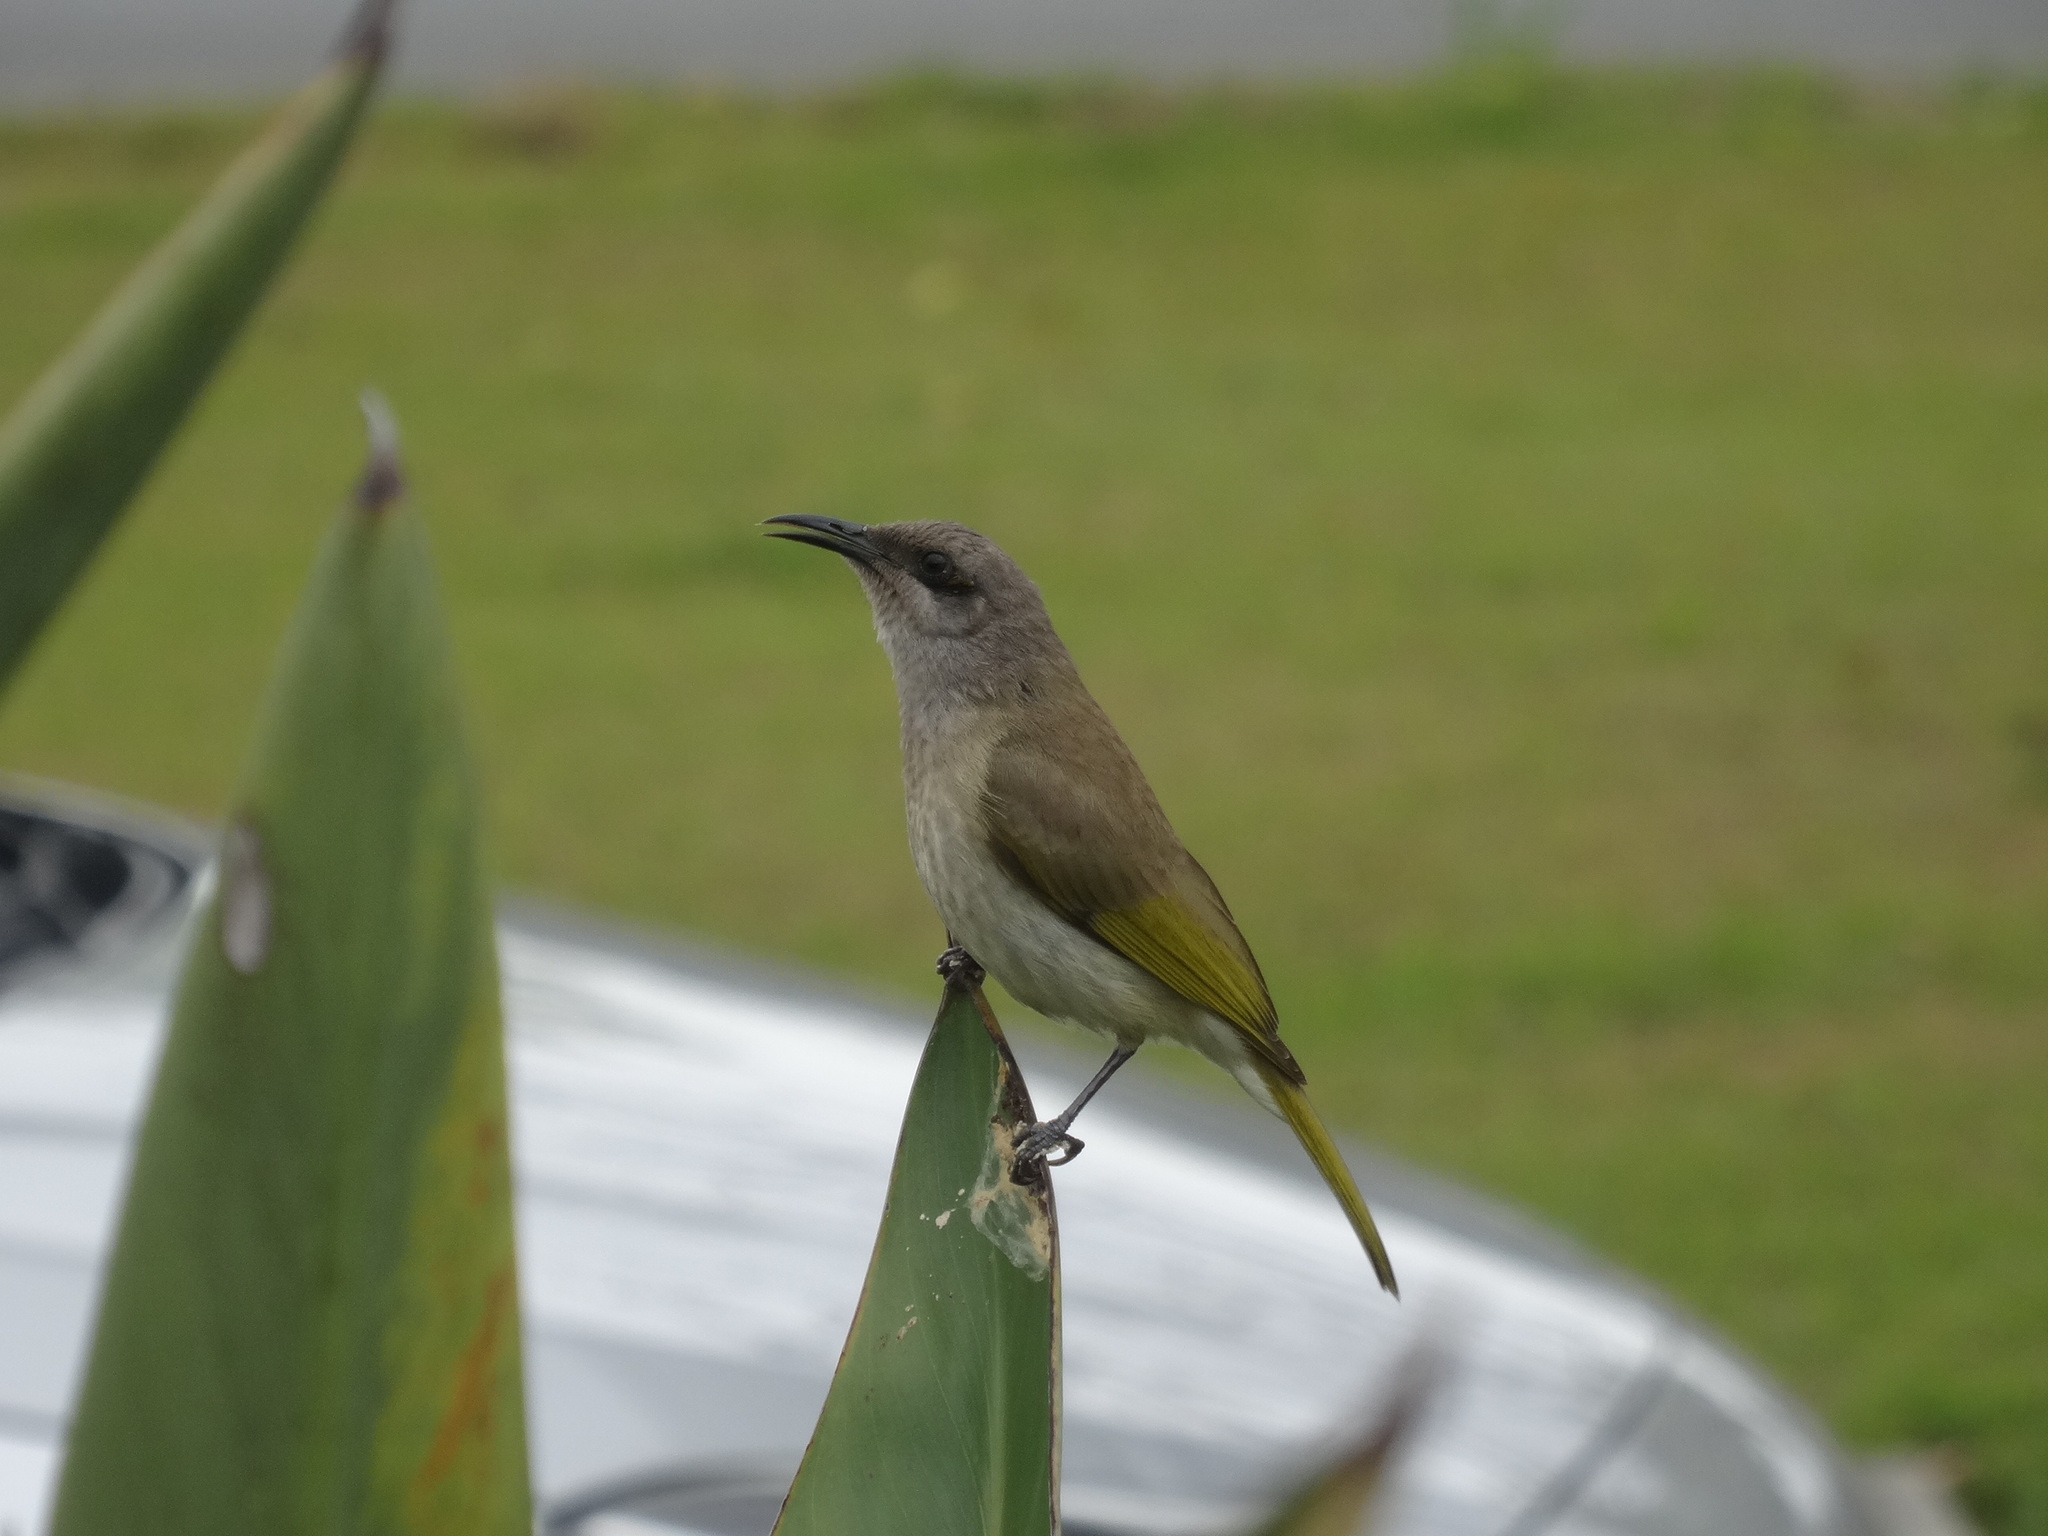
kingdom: Animalia
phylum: Chordata
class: Aves
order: Passeriformes
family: Meliphagidae
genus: Lichmera
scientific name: Lichmera indistincta
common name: Brown honeyeater
